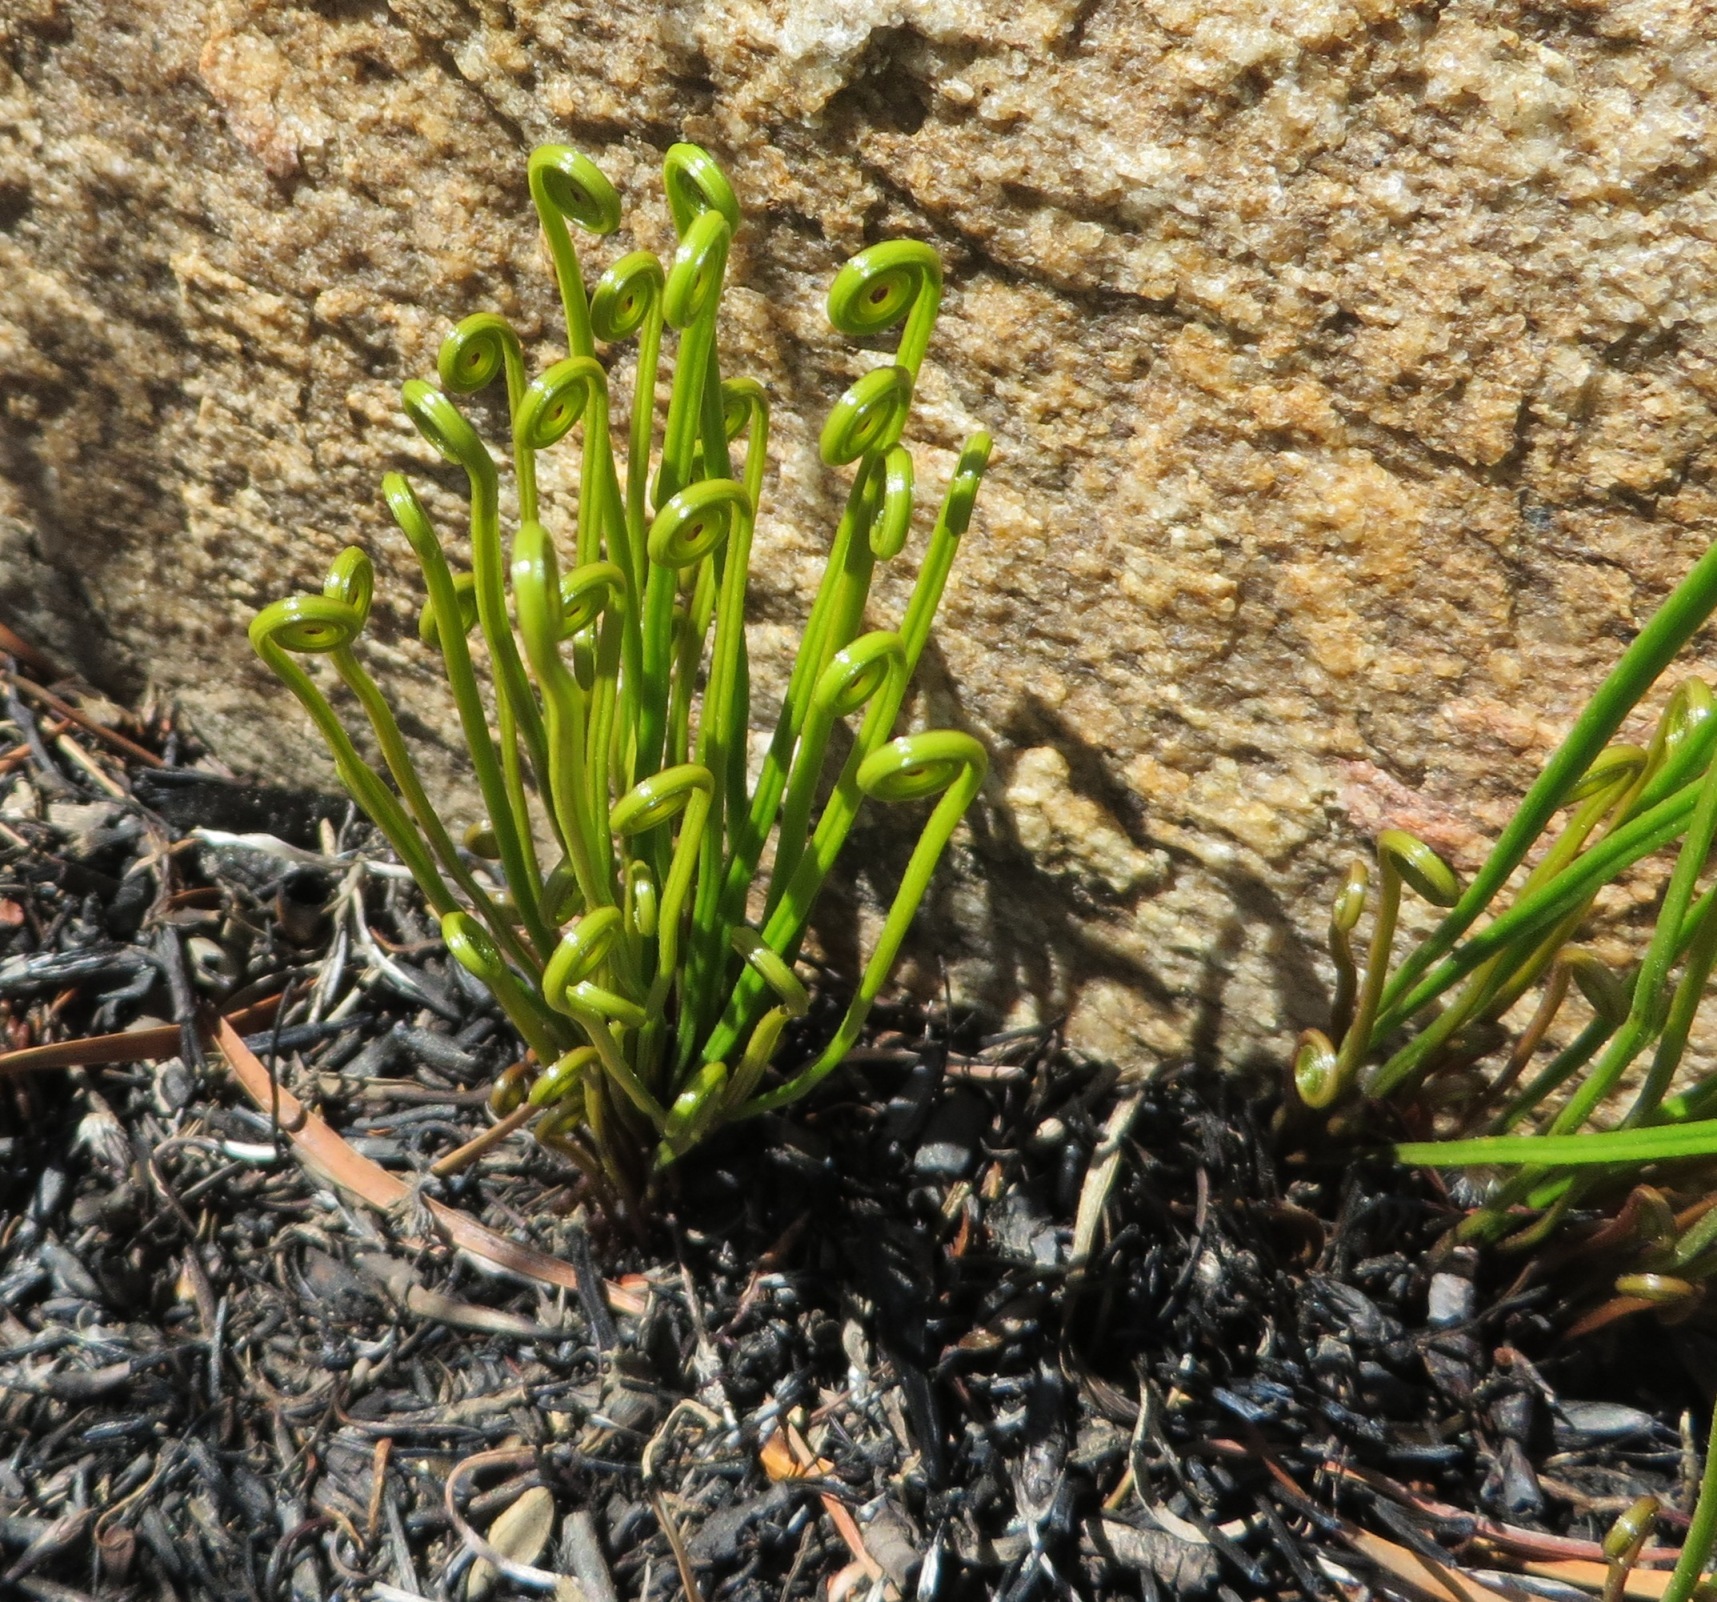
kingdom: Plantae
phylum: Tracheophyta
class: Polypodiopsida
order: Schizaeales
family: Schizaeaceae
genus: Schizaea
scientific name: Schizaea pectinata
